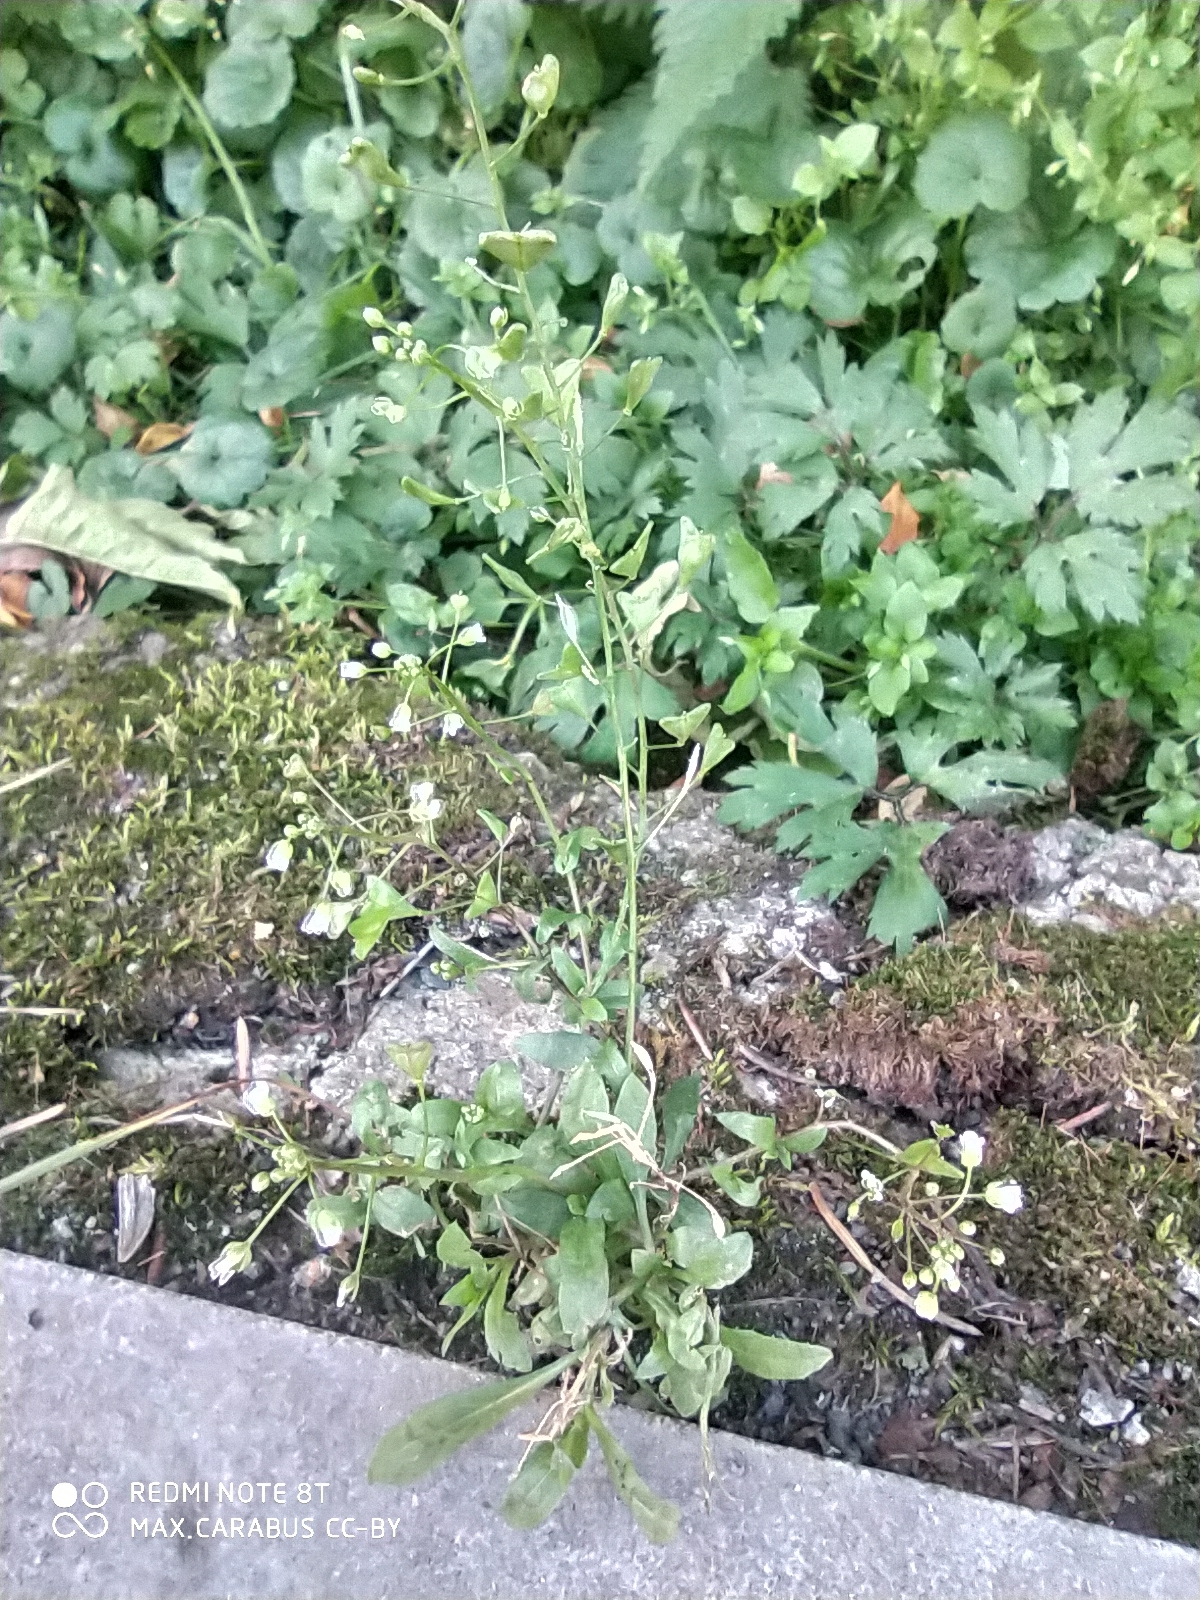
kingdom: Plantae
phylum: Tracheophyta
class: Magnoliopsida
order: Brassicales
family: Brassicaceae
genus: Capsella
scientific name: Capsella bursa-pastoris
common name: Shepherd's purse
